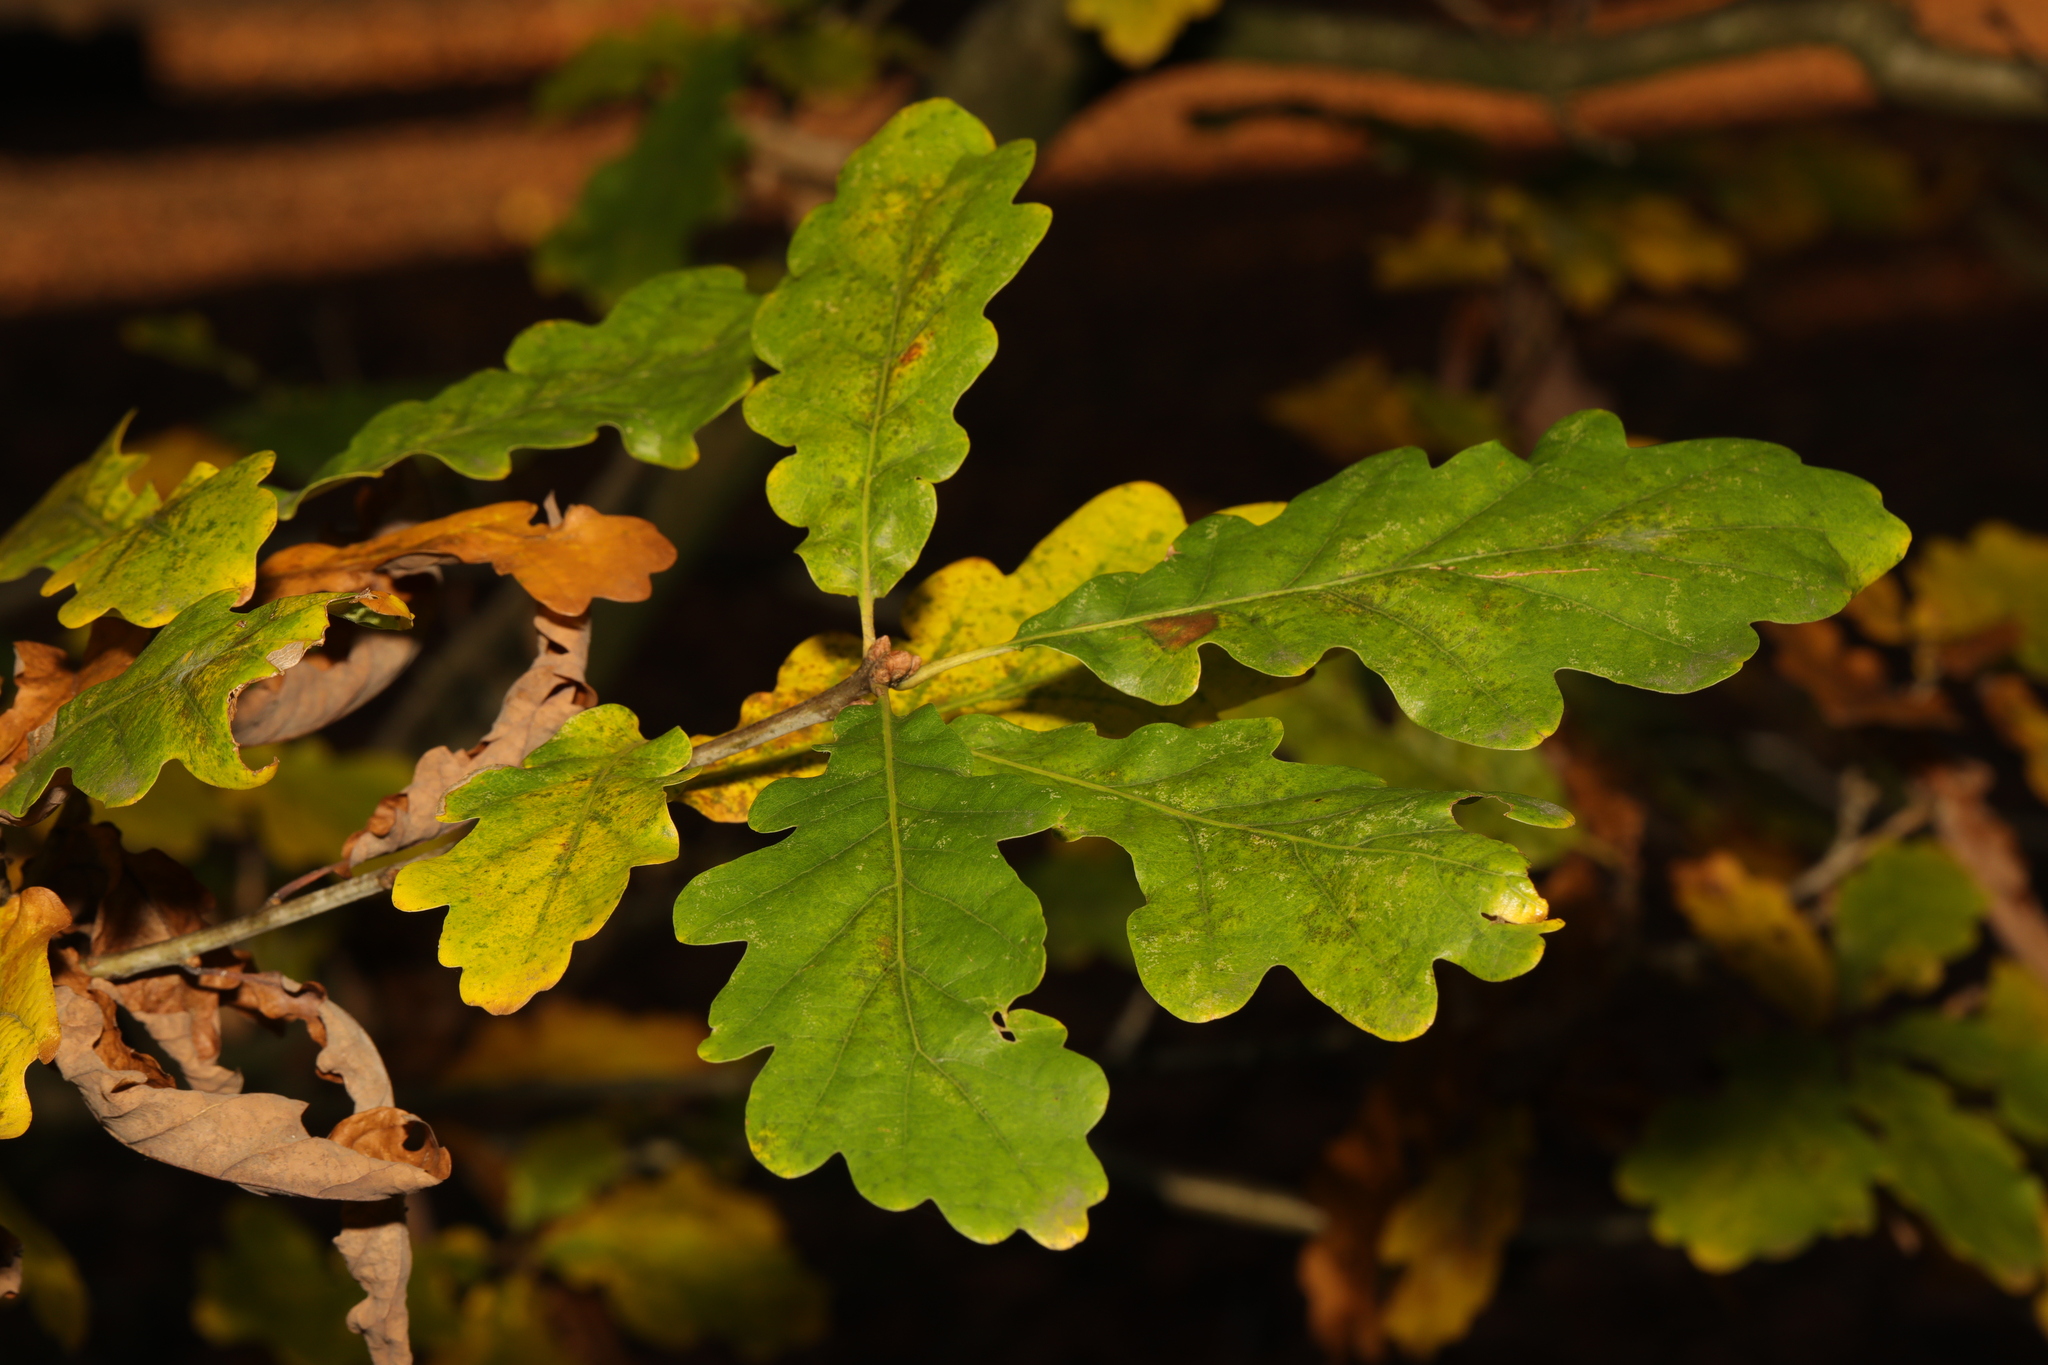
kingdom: Plantae
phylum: Tracheophyta
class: Magnoliopsida
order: Fagales
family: Fagaceae
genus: Quercus
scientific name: Quercus petraea
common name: Sessile oak
